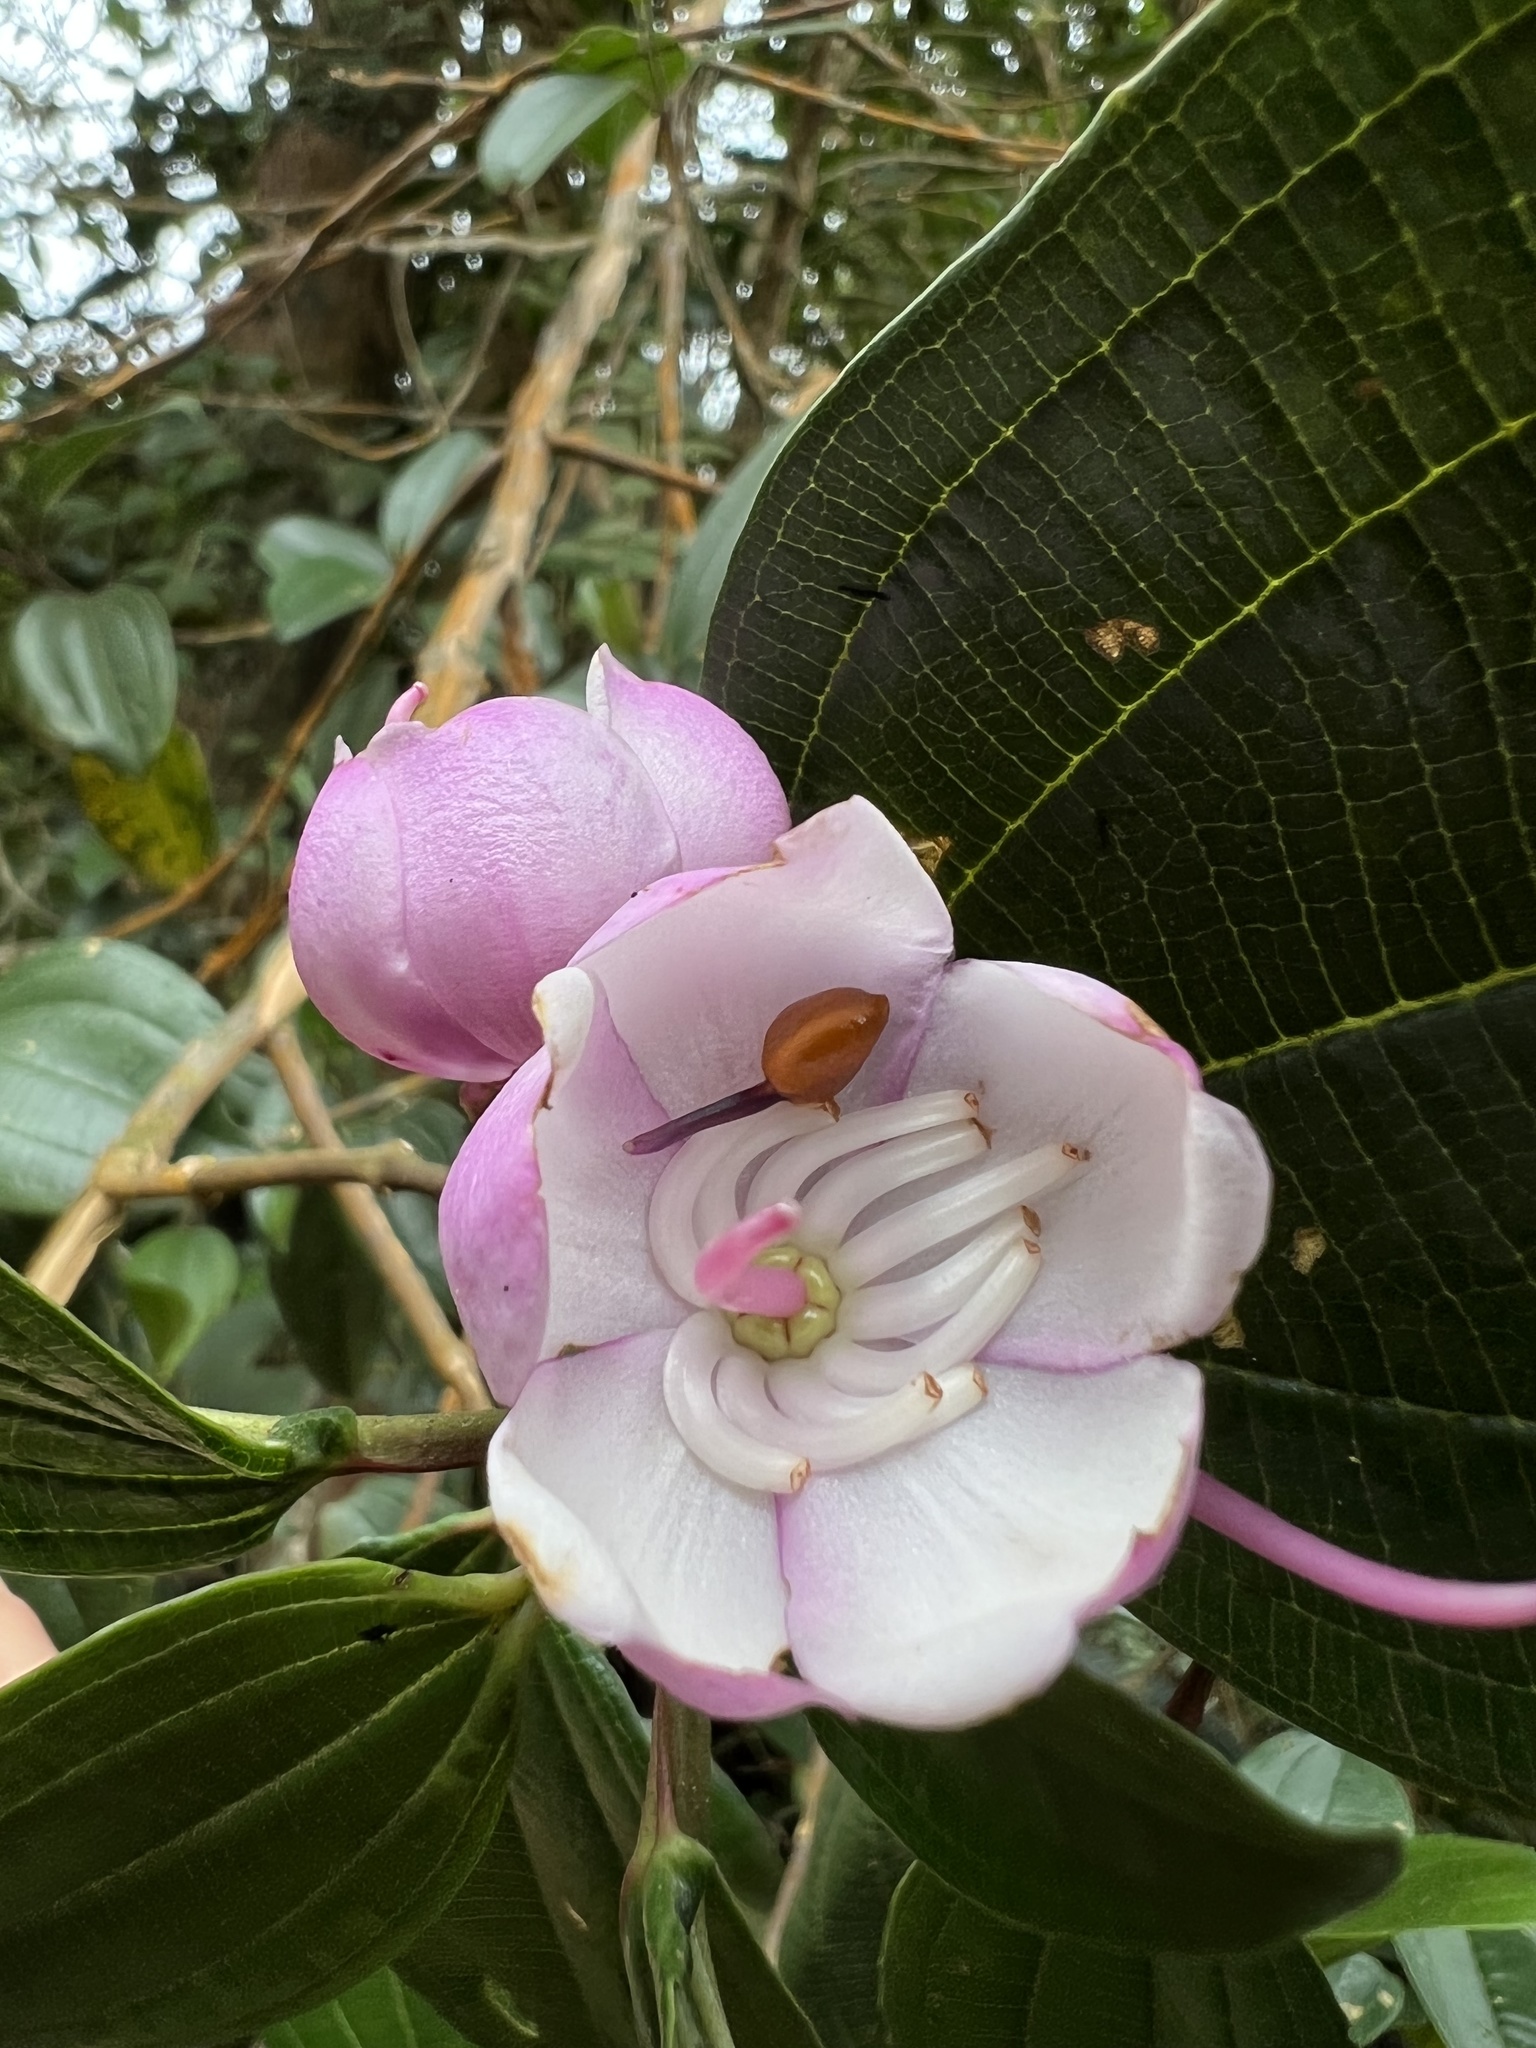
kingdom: Plantae
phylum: Tracheophyta
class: Magnoliopsida
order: Myrtales
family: Melastomataceae
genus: Axinaea
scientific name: Axinaea macrophylla
